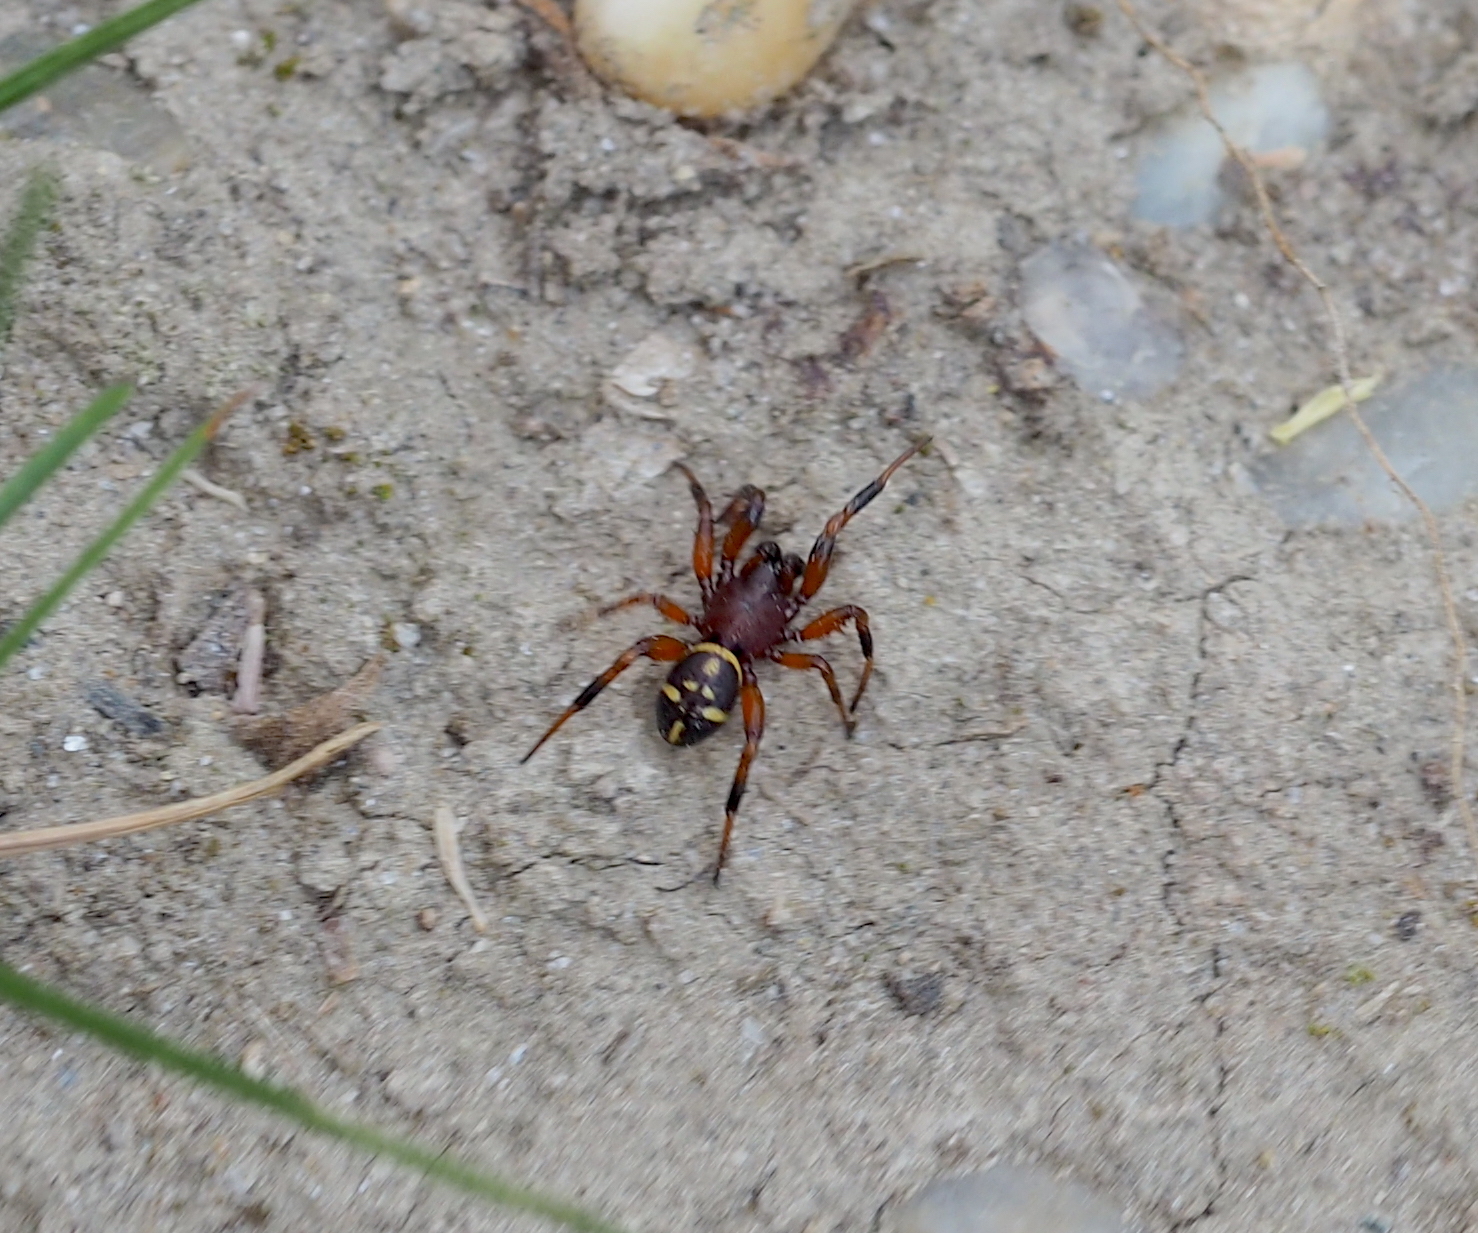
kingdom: Animalia
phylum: Arthropoda
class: Arachnida
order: Araneae
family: Theridiidae
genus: Asagena
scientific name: Asagena phalerata
